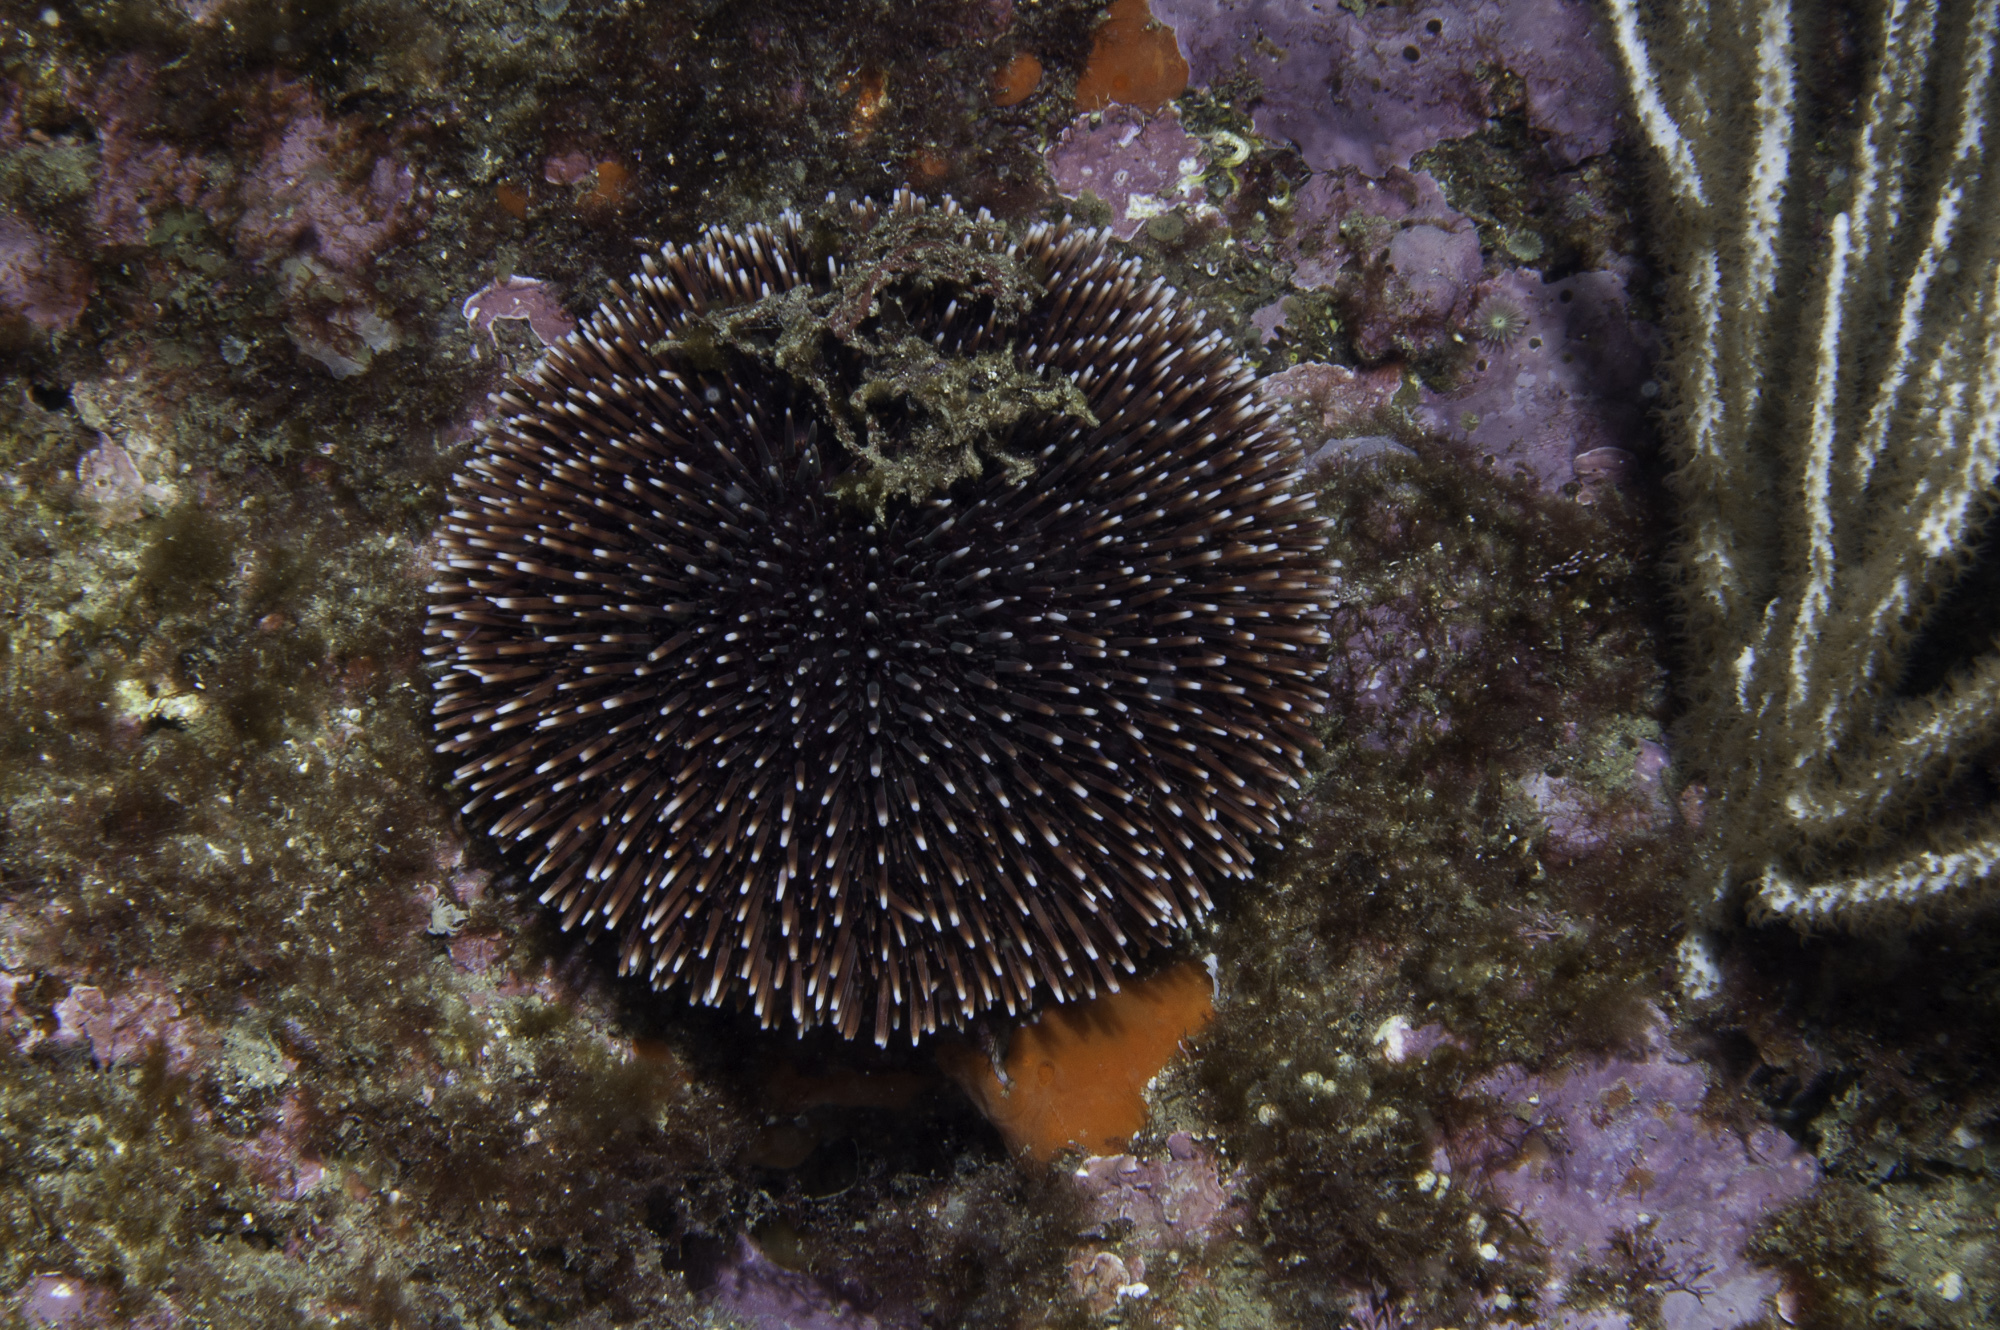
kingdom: Animalia
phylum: Echinodermata
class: Echinoidea
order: Camarodonta
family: Toxopneustidae
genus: Sphaerechinus
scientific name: Sphaerechinus granularis
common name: Violet sea urchin
